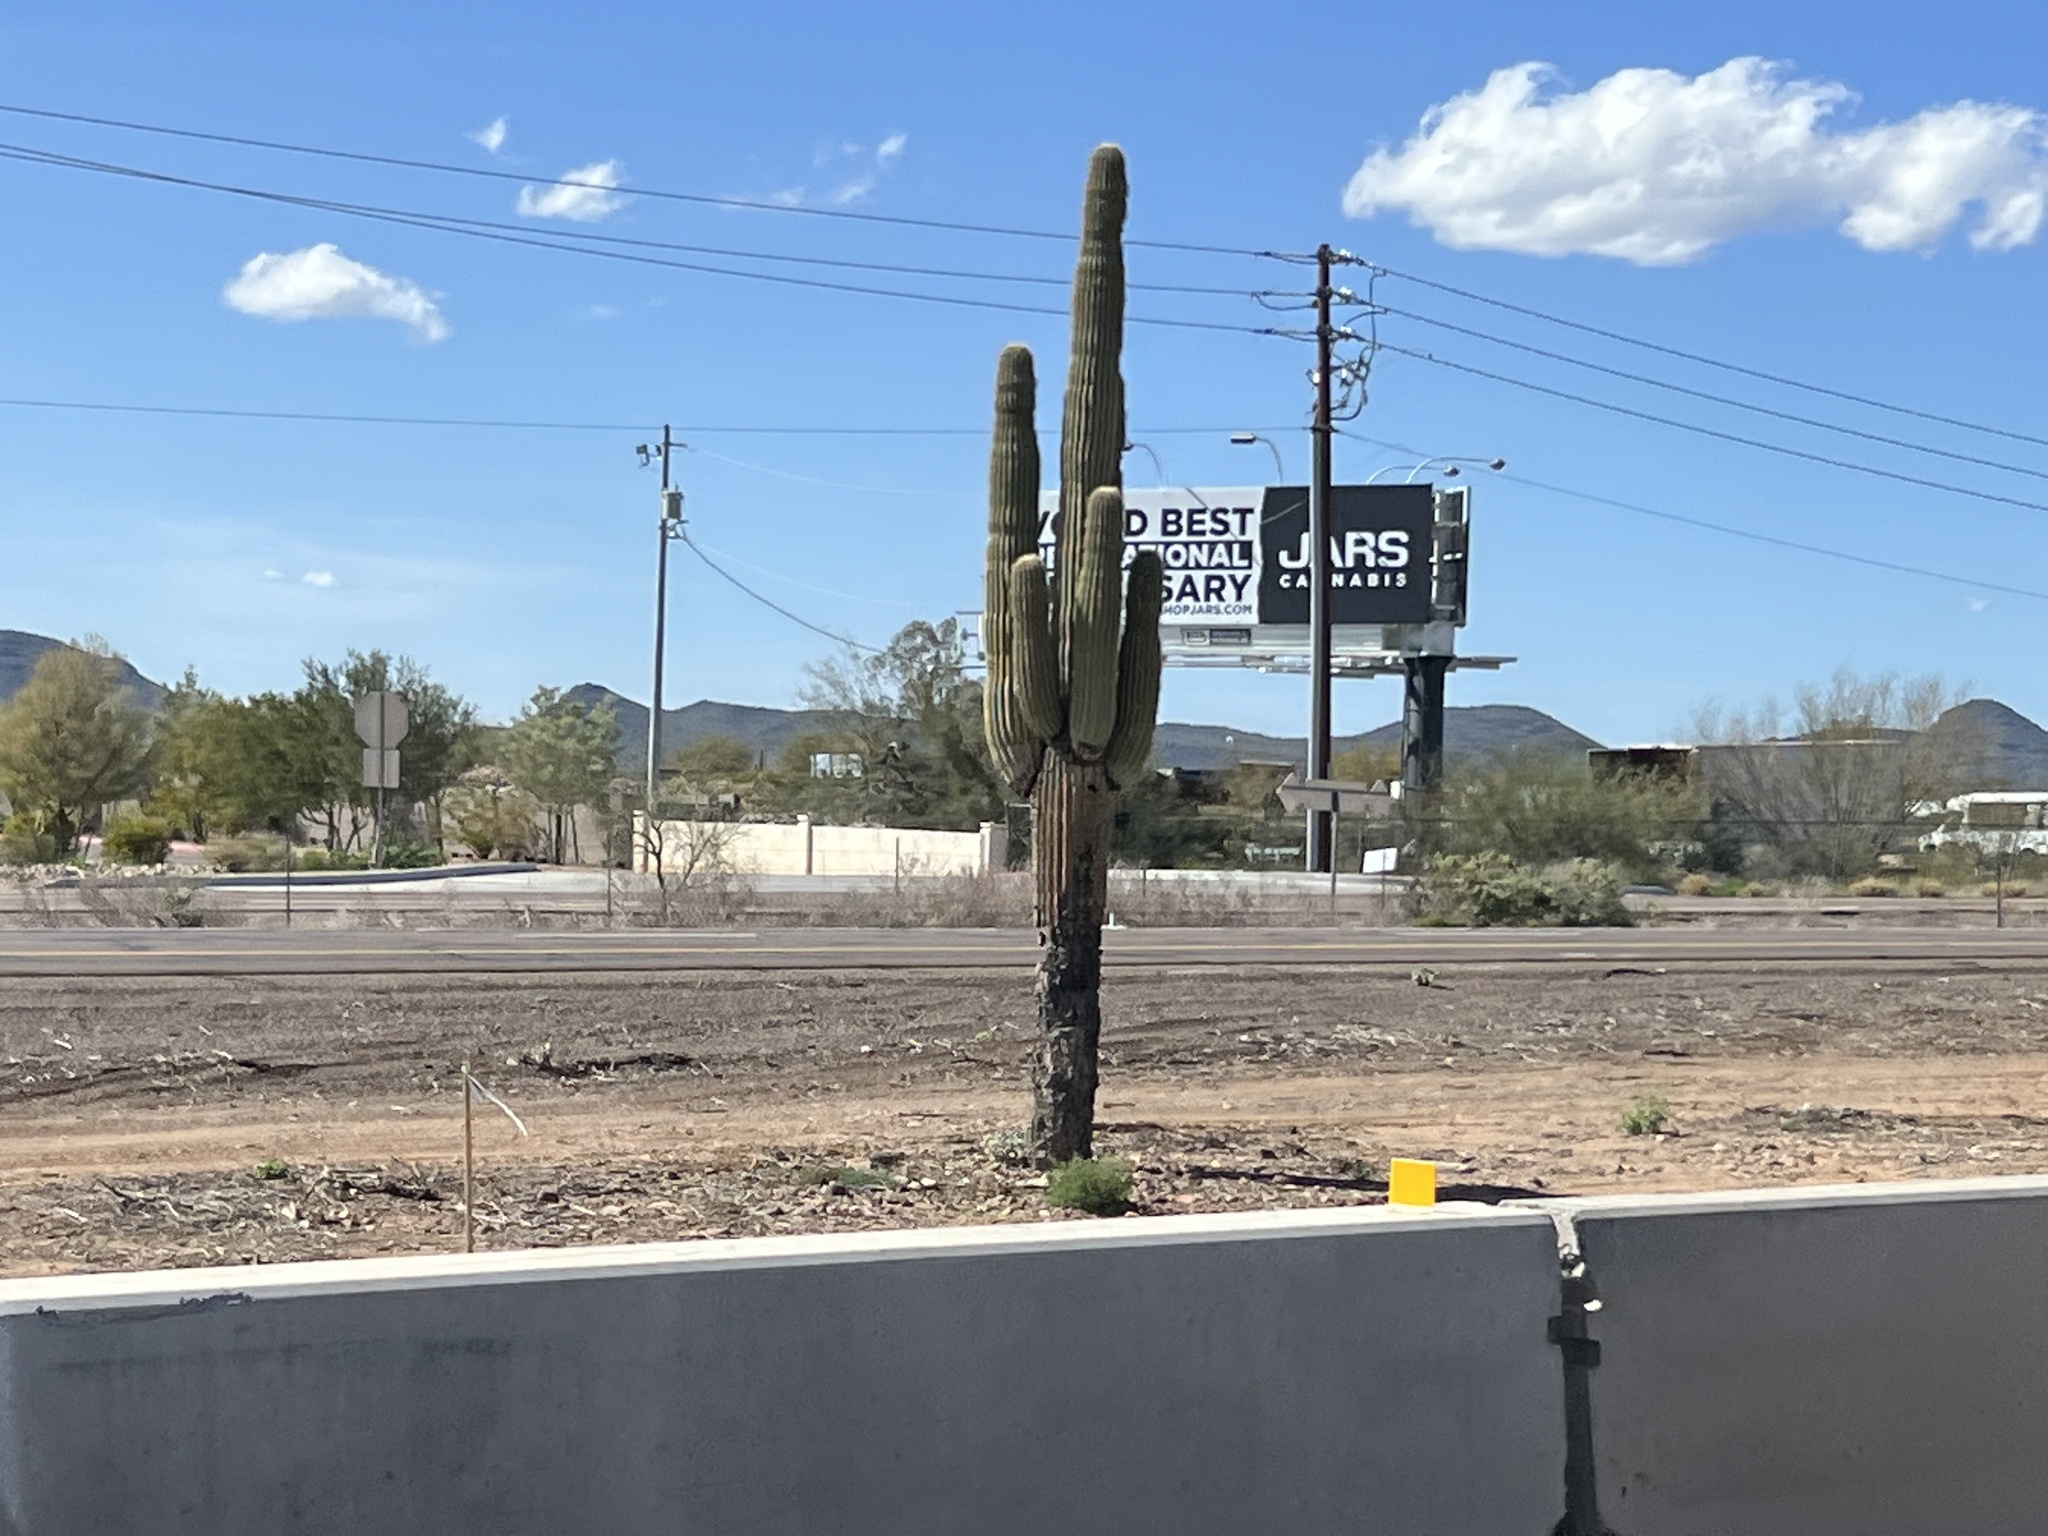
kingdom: Plantae
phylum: Tracheophyta
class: Magnoliopsida
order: Caryophyllales
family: Cactaceae
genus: Carnegiea
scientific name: Carnegiea gigantea
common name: Saguaro
